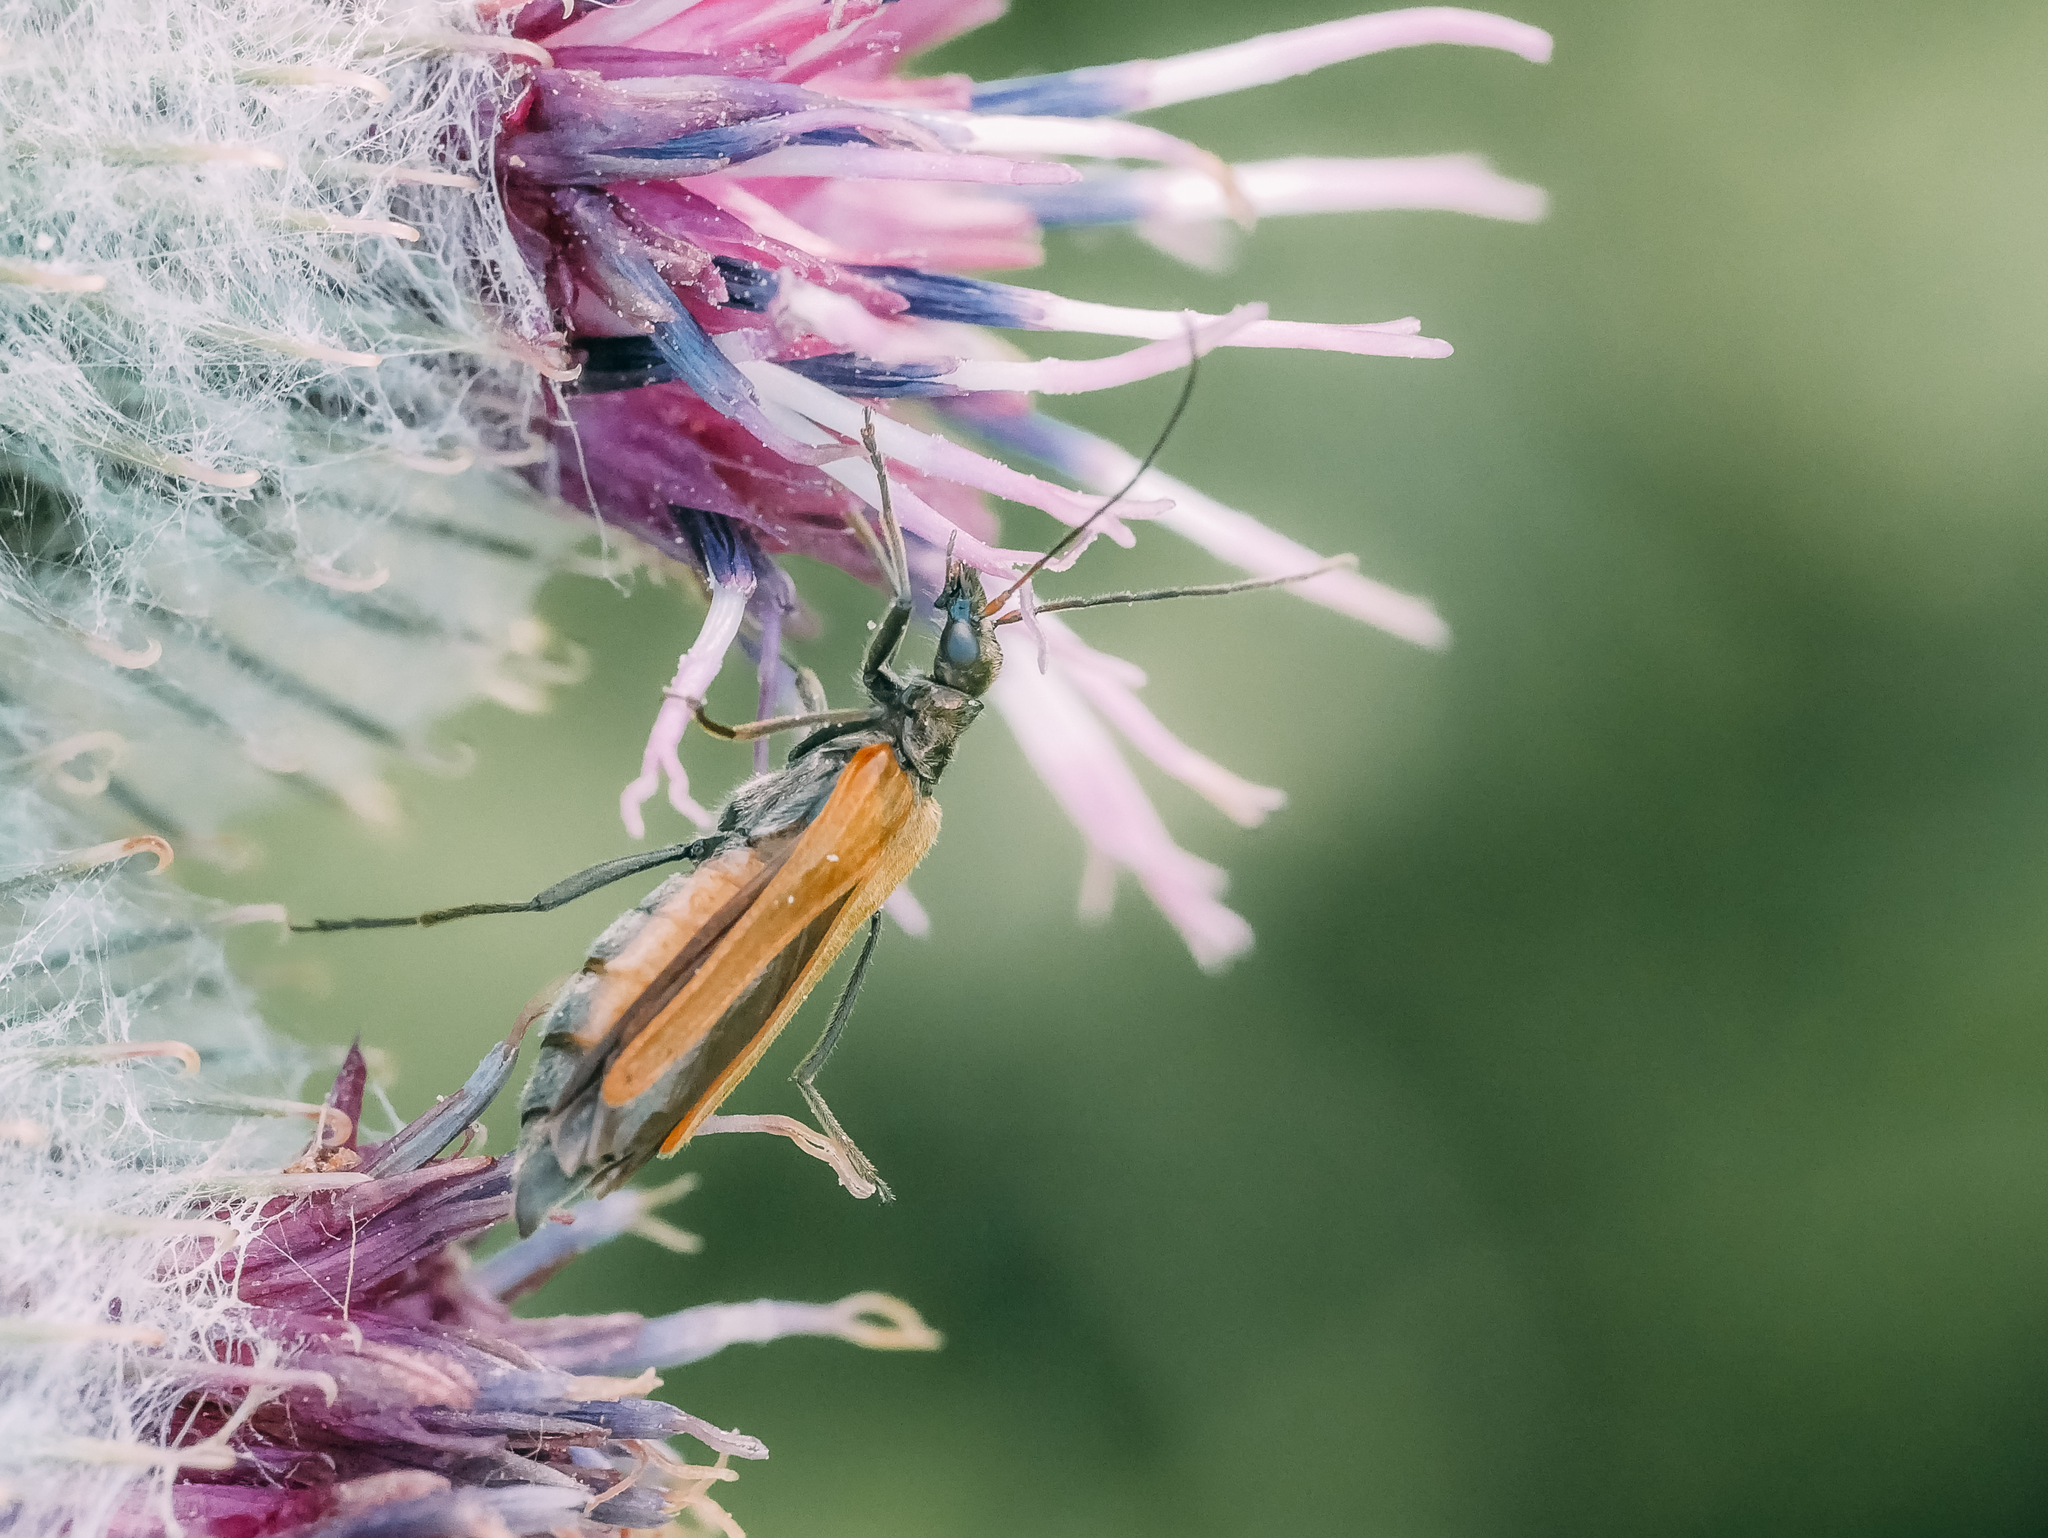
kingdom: Animalia
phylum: Arthropoda
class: Insecta
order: Coleoptera
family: Oedemeridae
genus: Oedemera
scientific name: Oedemera femorata
